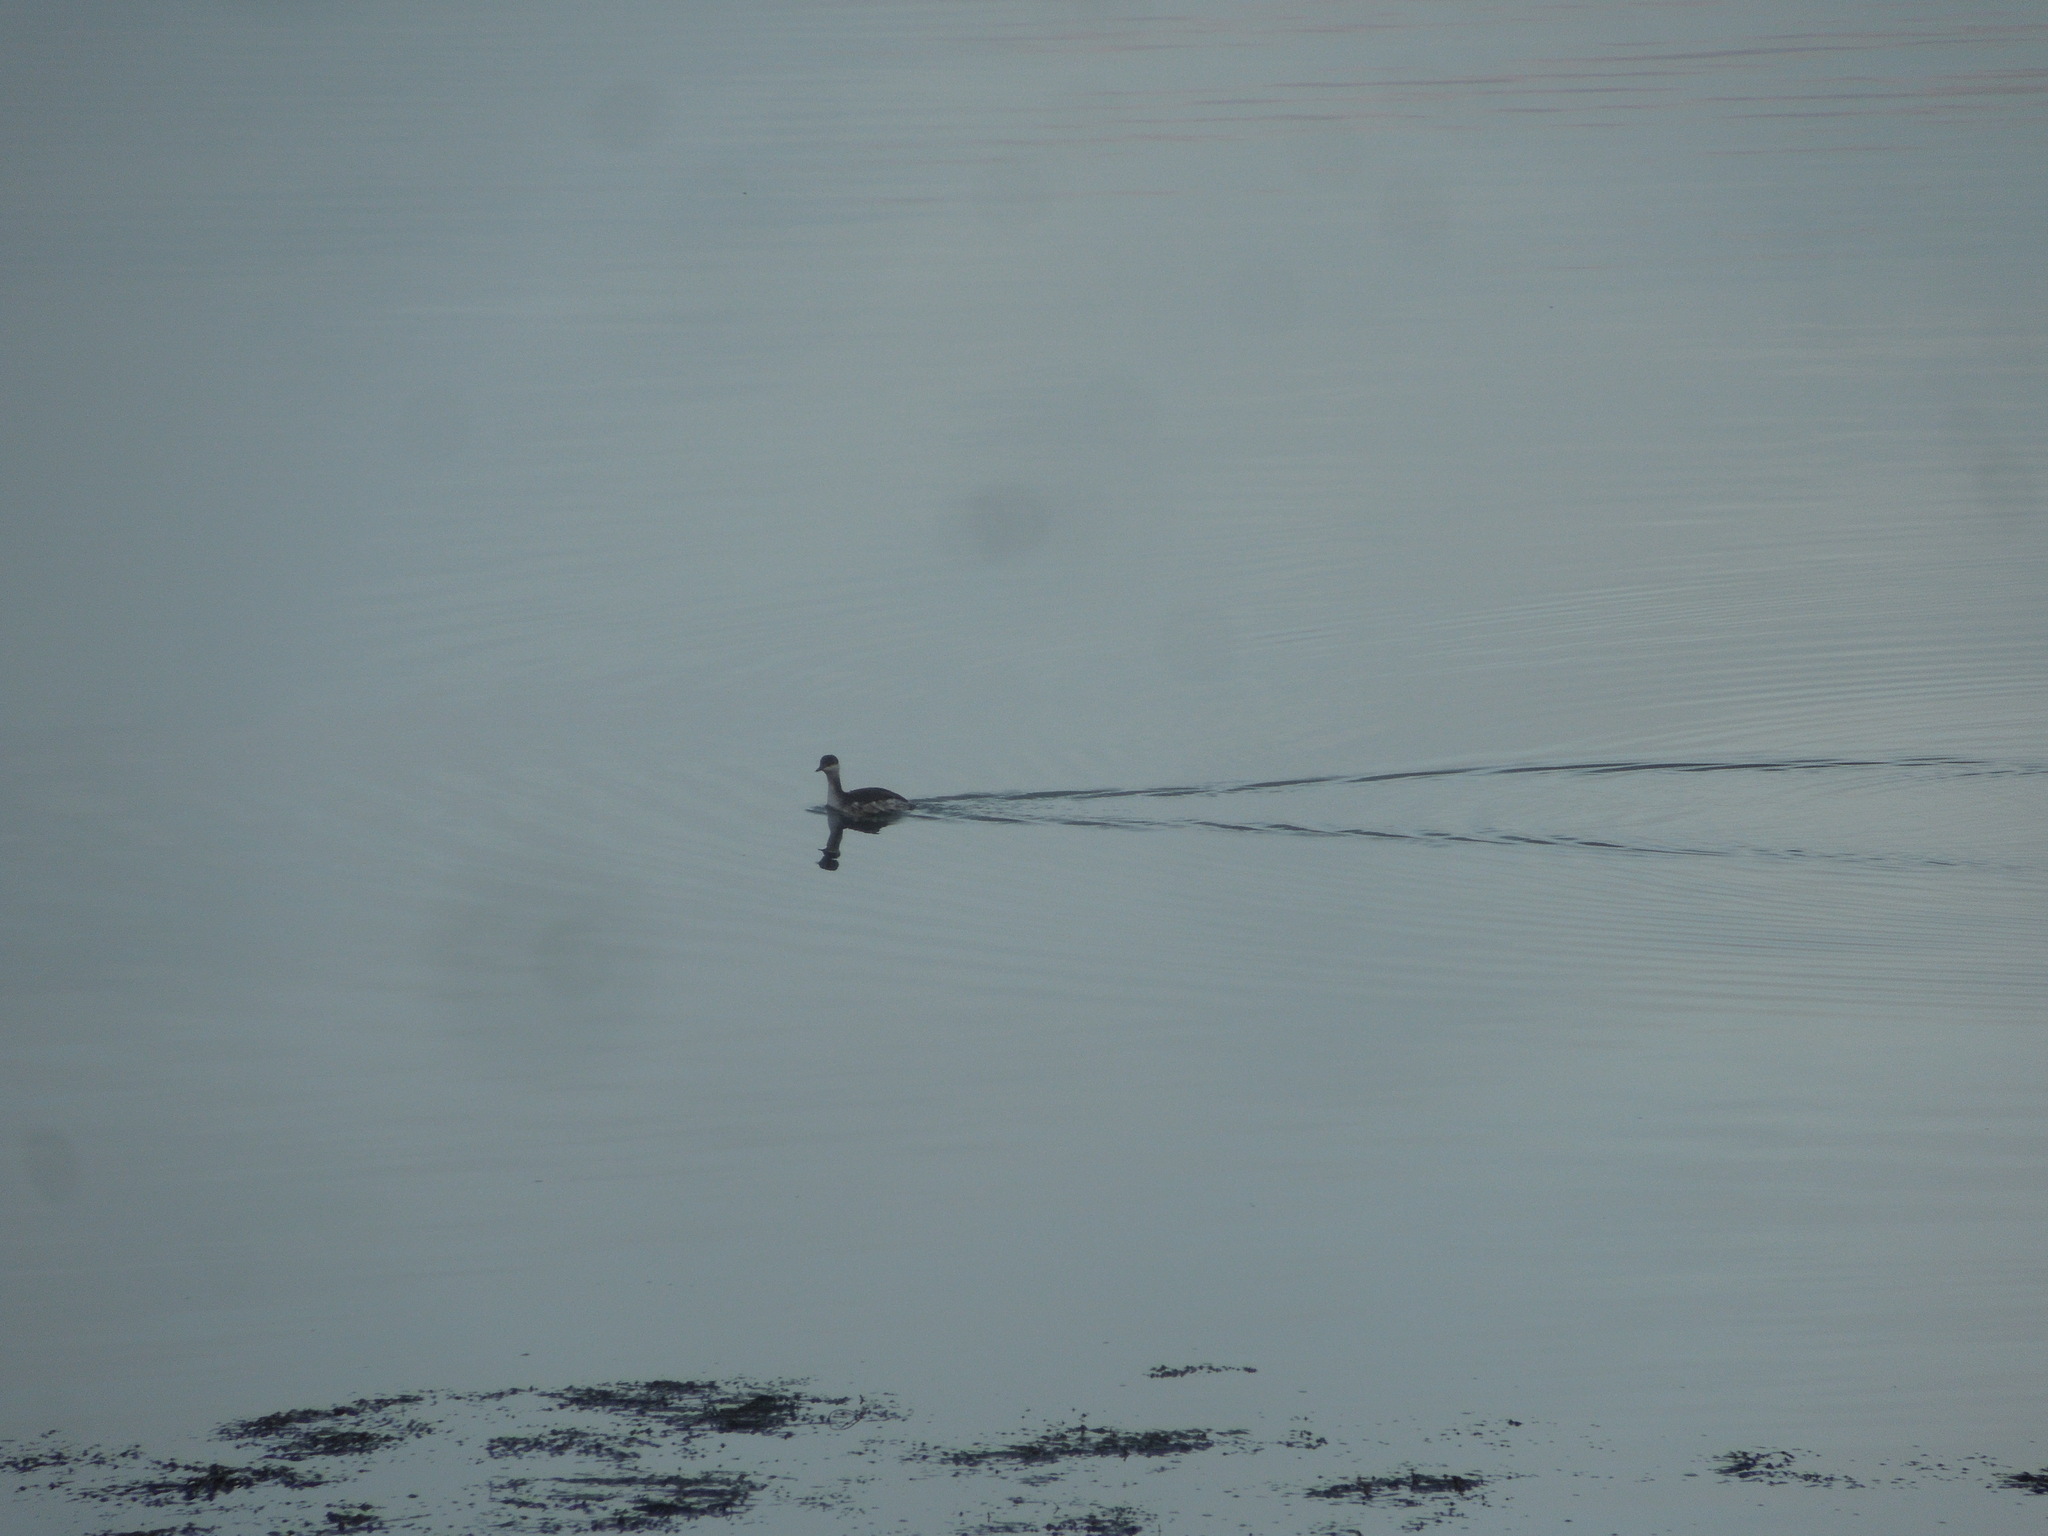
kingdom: Animalia
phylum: Chordata
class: Aves
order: Podicipediformes
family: Podicipedidae
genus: Podiceps
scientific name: Podiceps auritus
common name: Horned grebe
